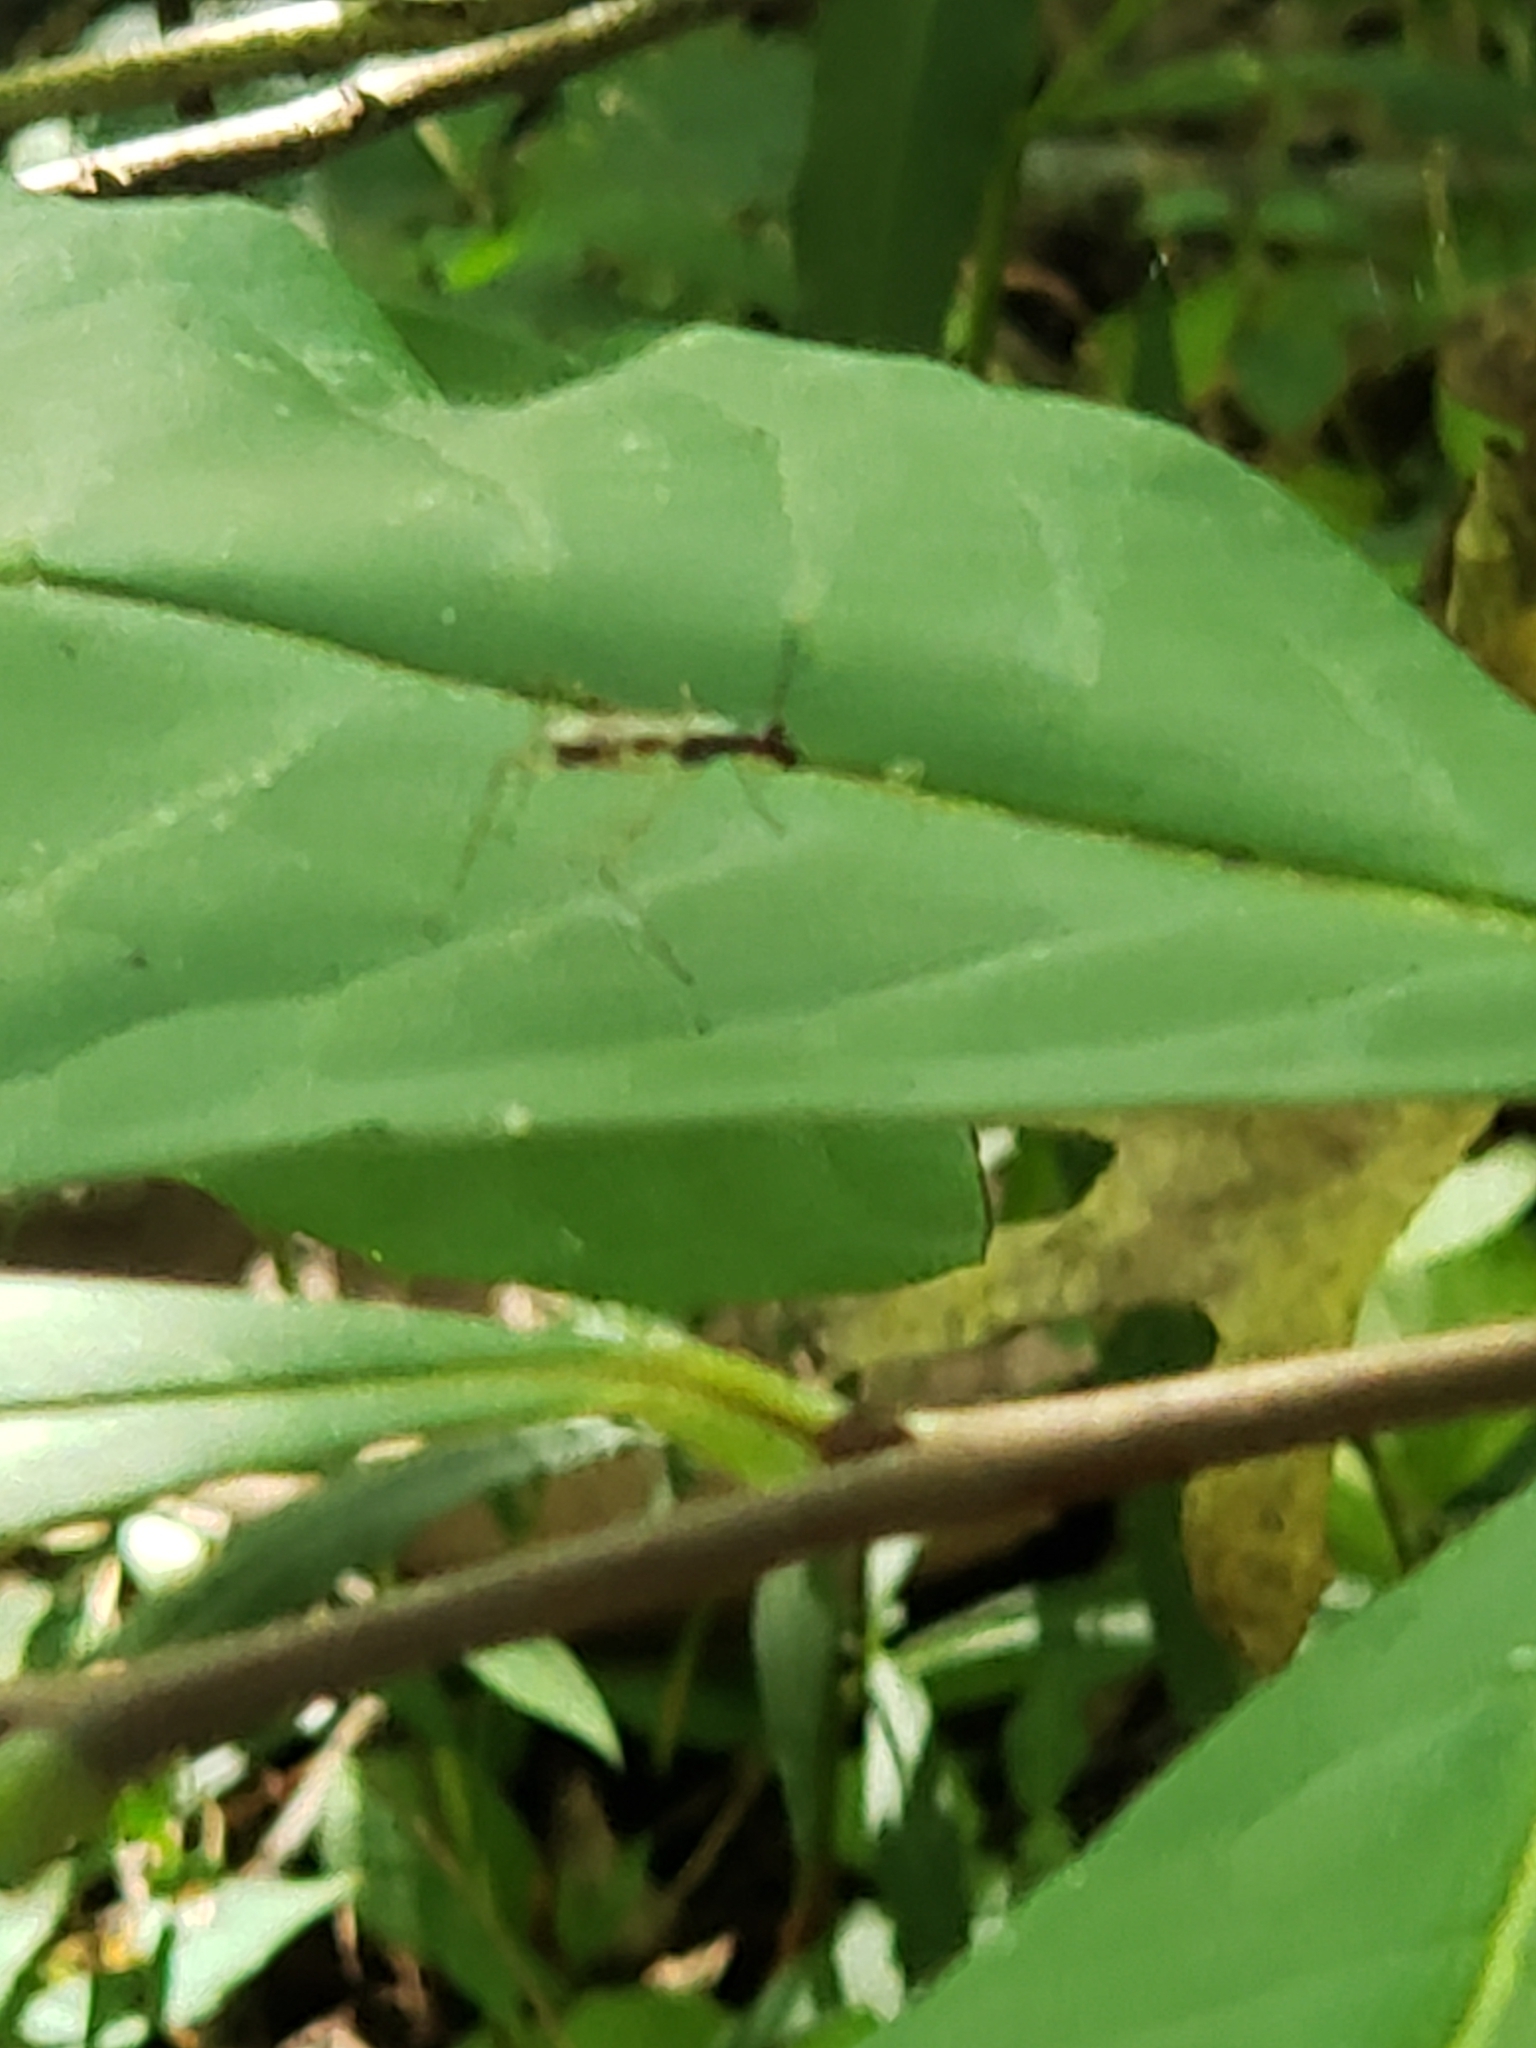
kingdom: Animalia
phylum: Arthropoda
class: Insecta
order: Diptera
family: Micropezidae
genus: Rainieria
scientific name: Rainieria antennaepes
